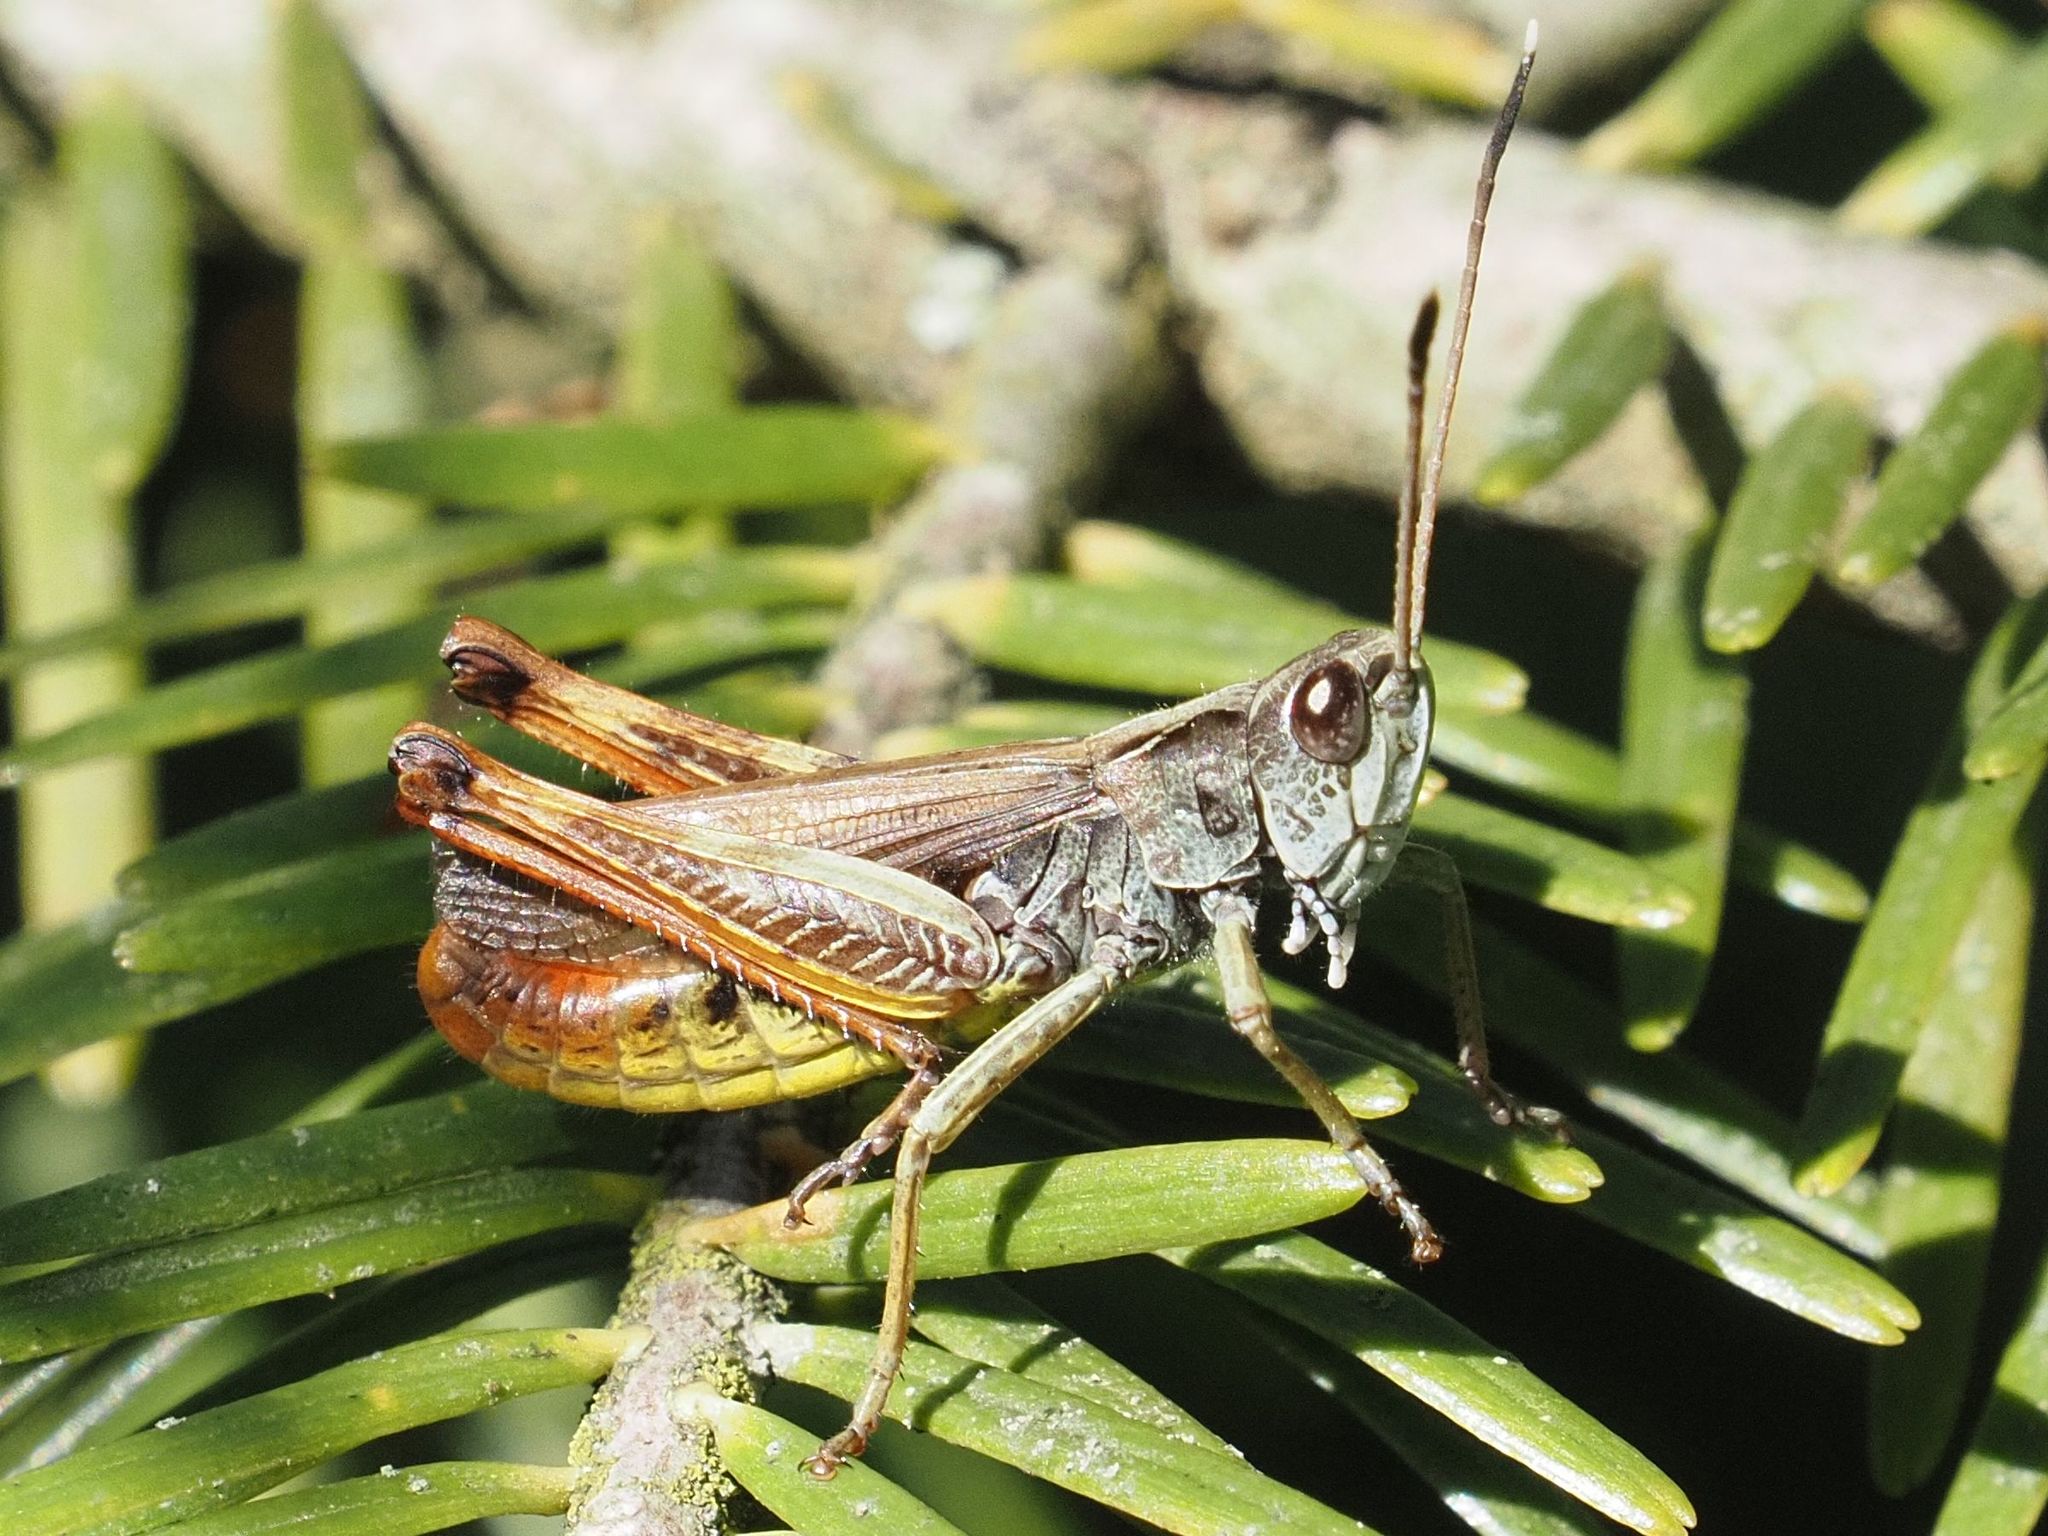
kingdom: Animalia
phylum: Arthropoda
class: Insecta
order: Orthoptera
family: Acrididae
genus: Gomphocerippus
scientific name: Gomphocerippus rufus
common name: Rufous grasshopper
